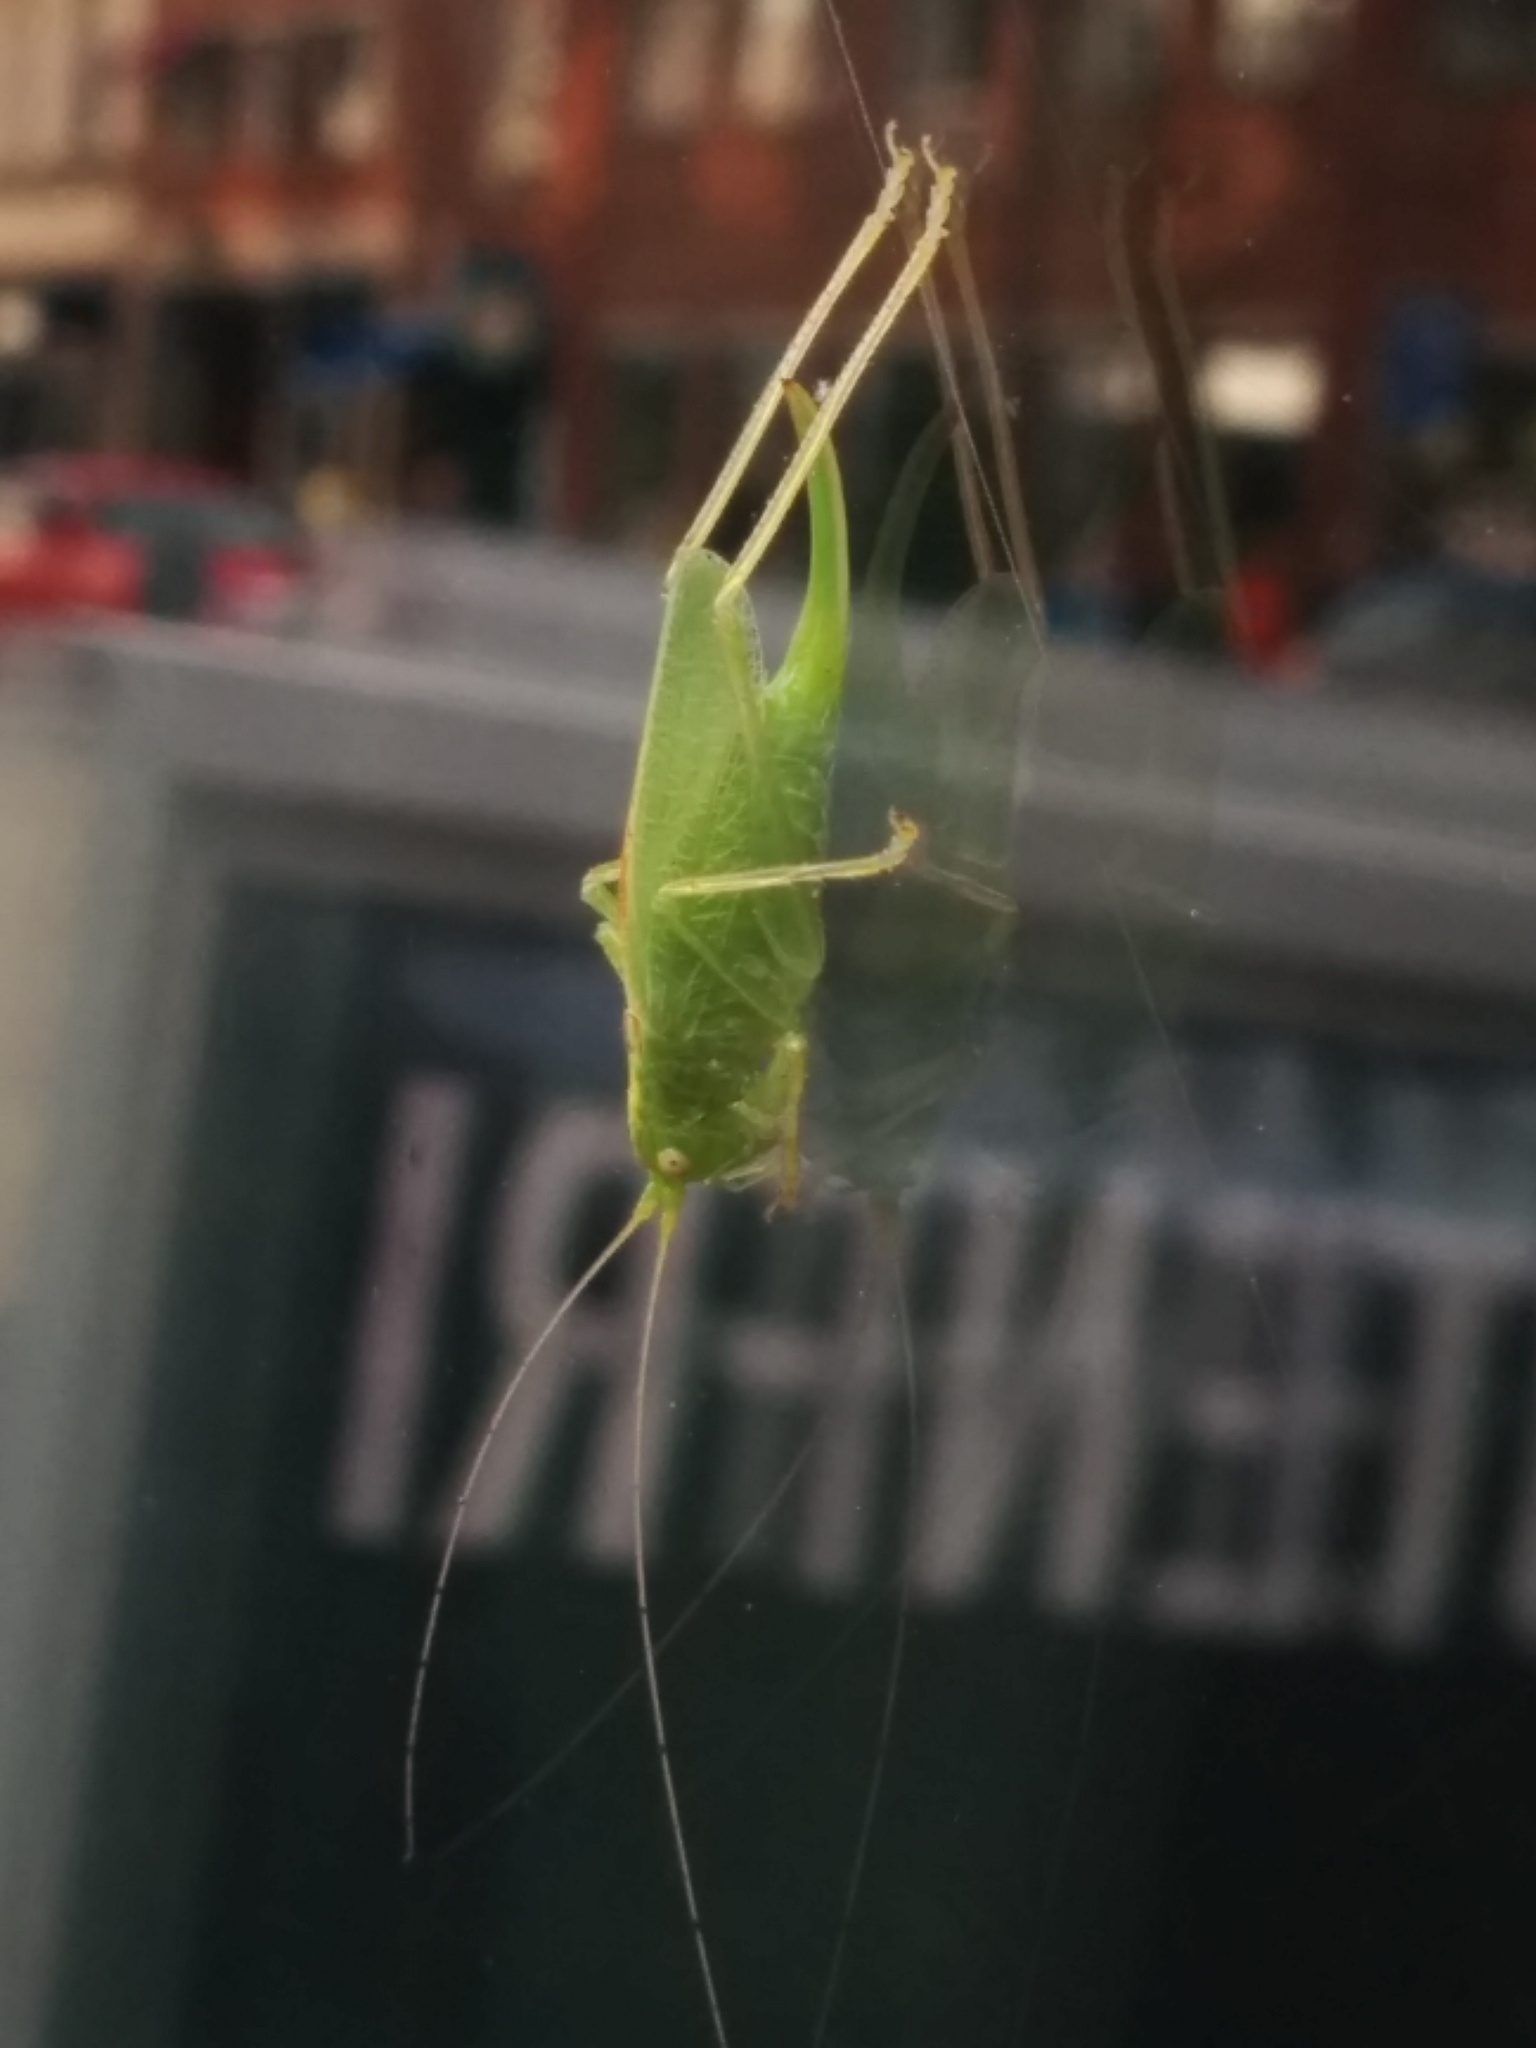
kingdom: Animalia
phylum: Arthropoda
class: Insecta
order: Orthoptera
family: Tettigoniidae
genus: Meconema
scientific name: Meconema thalassinum
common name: Oak bush-cricket
